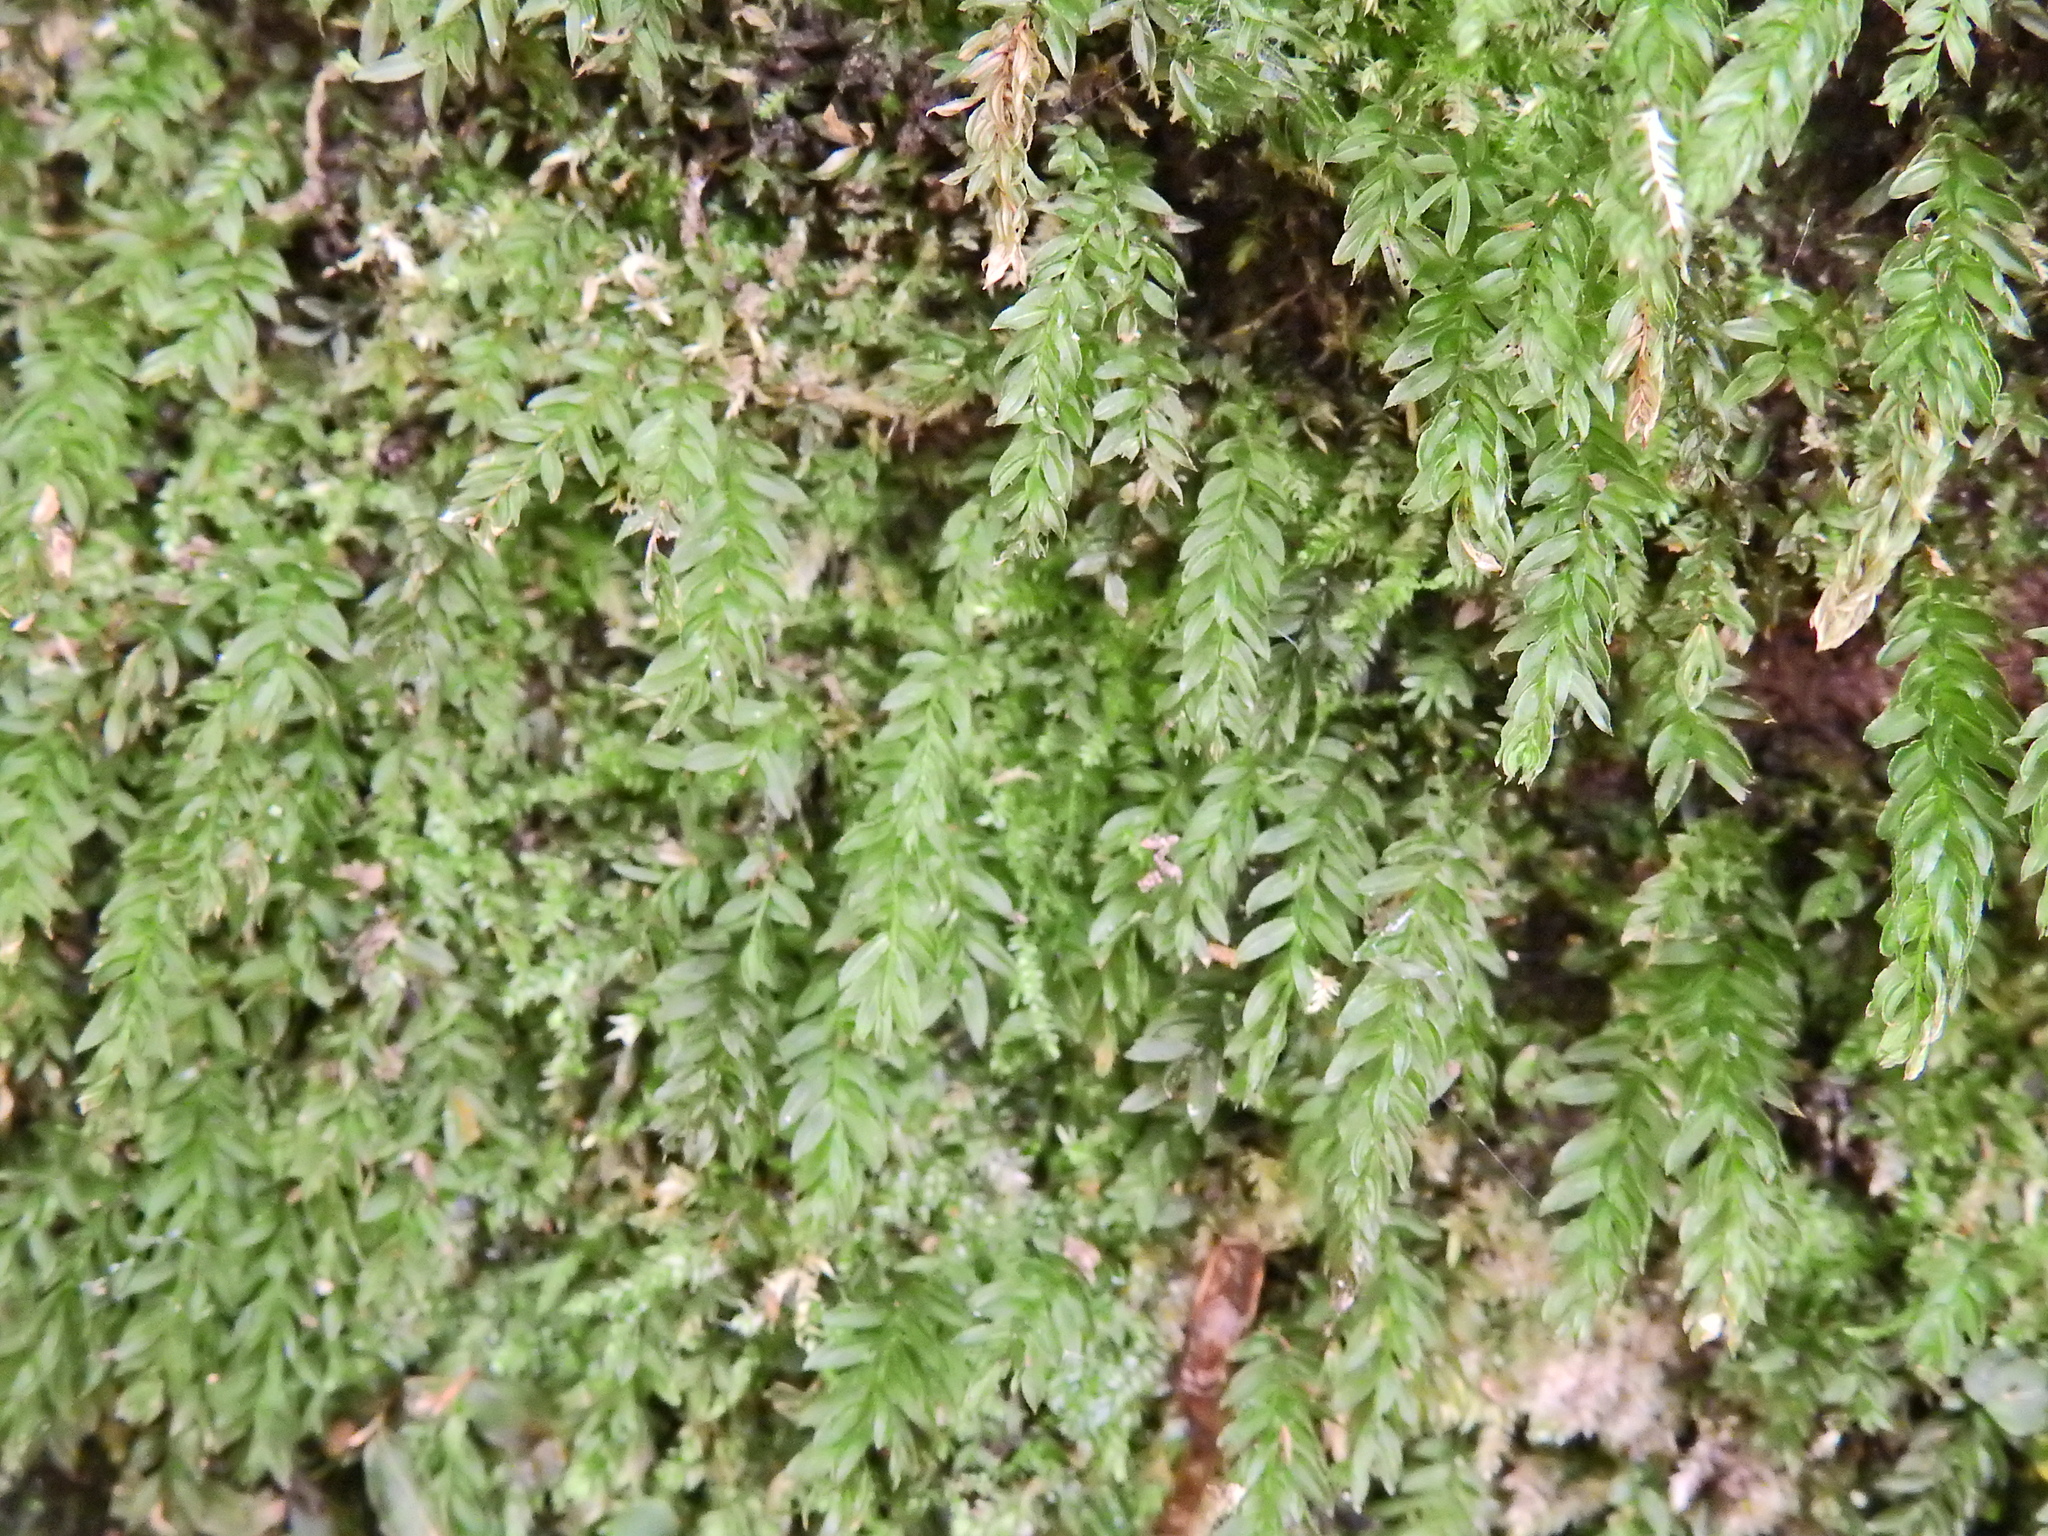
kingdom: Plantae
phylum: Bryophyta
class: Bryopsida
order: Bryales
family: Mniaceae
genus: Mnium
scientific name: Mnium hornum
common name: Swan's-neck leafy moss
